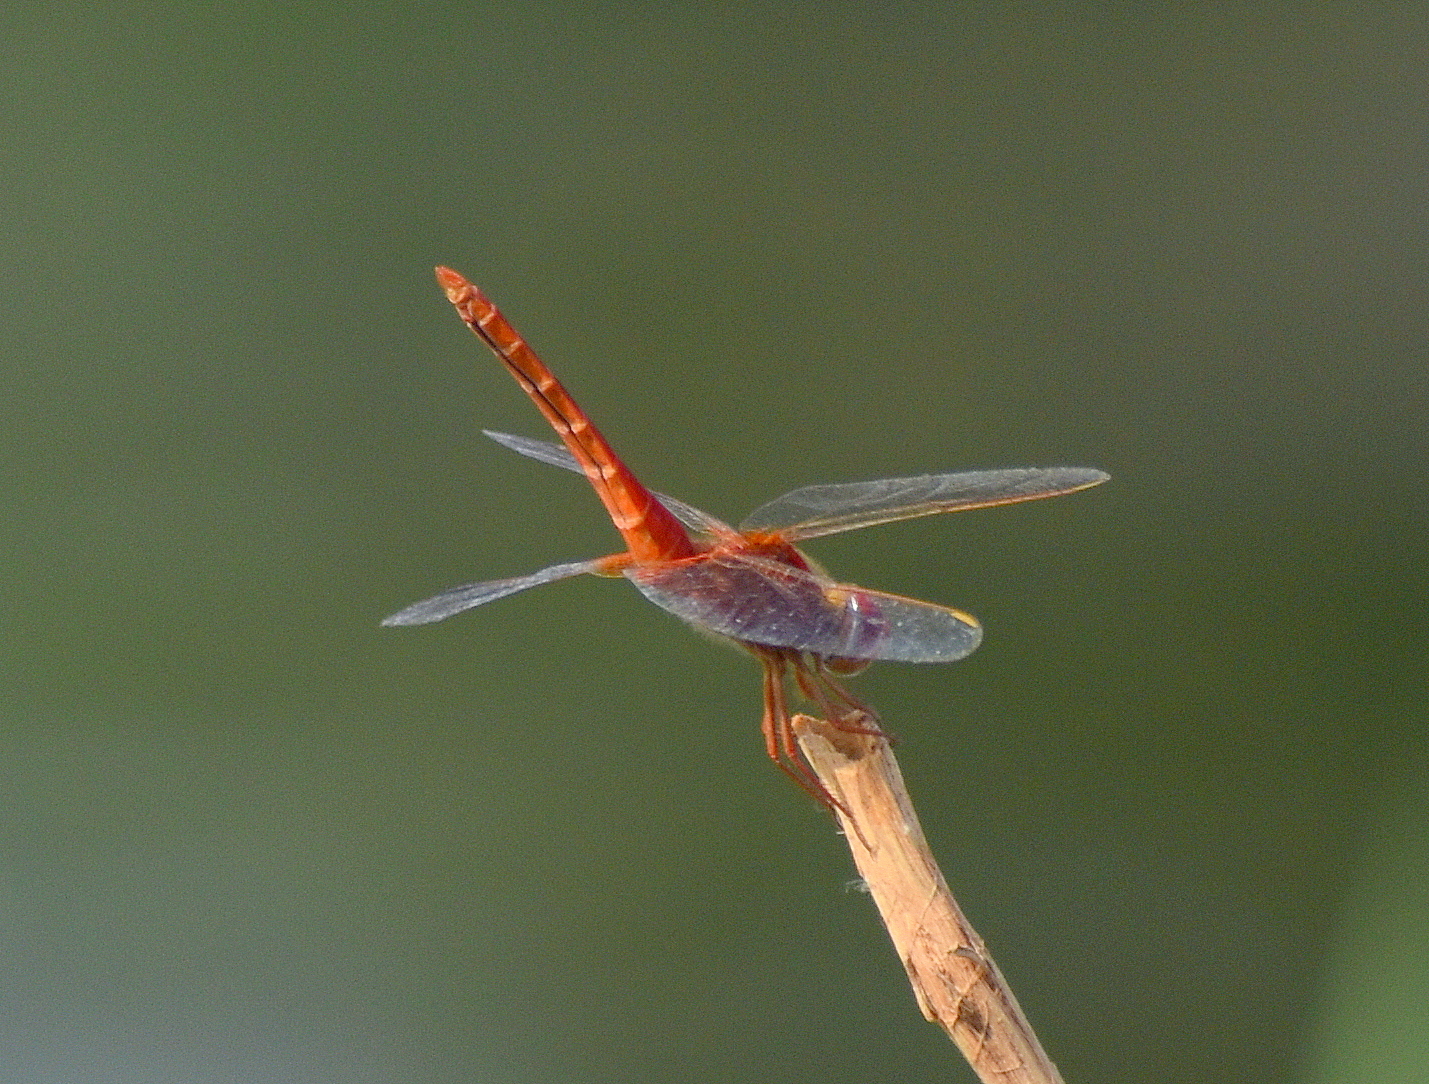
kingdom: Animalia
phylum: Arthropoda
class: Insecta
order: Odonata
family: Libellulidae
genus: Crocothemis
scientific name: Crocothemis servilia
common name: Scarlet skimmer
